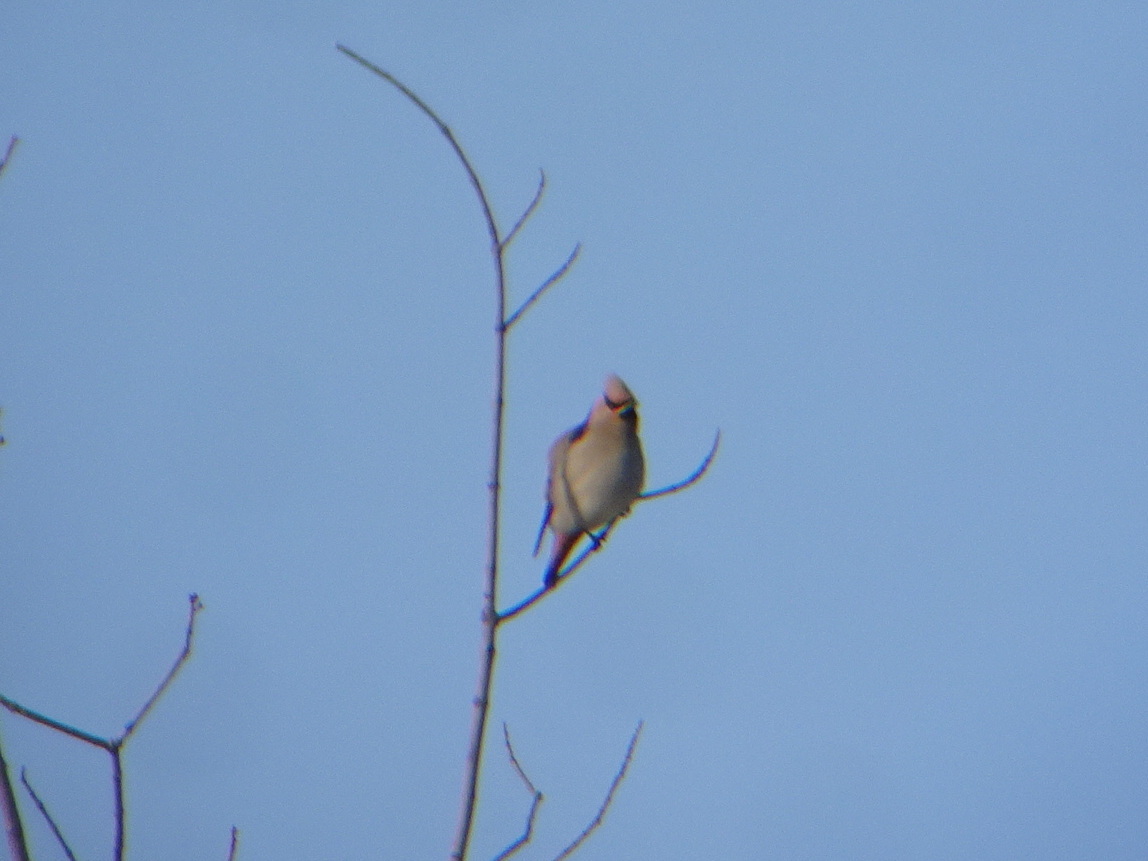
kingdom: Animalia
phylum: Chordata
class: Aves
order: Passeriformes
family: Bombycillidae
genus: Bombycilla
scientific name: Bombycilla garrulus
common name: Bohemian waxwing
